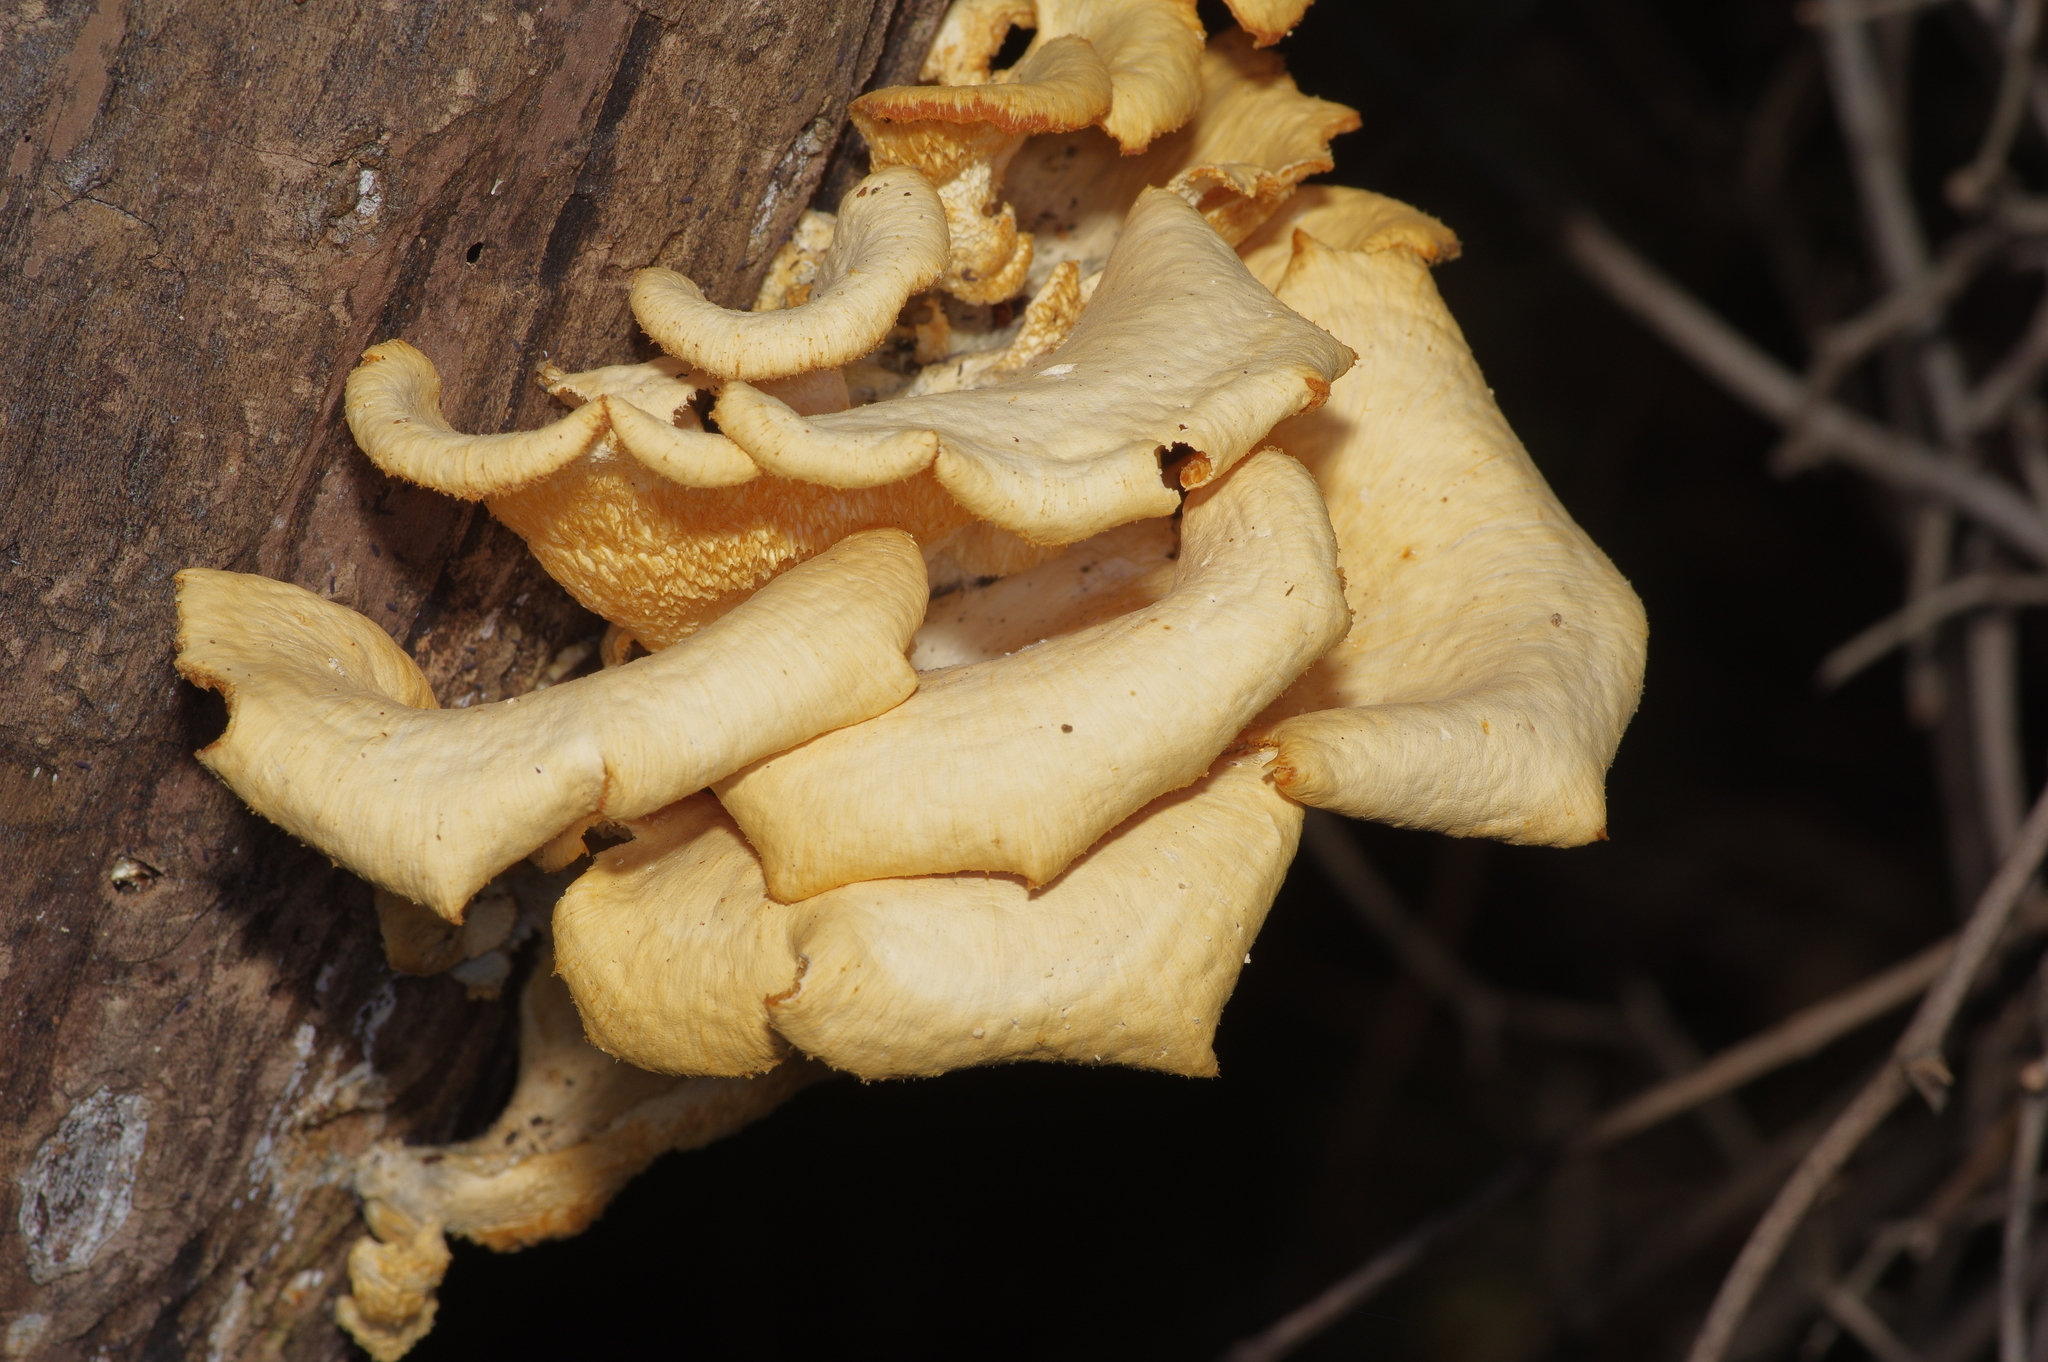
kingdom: Fungi
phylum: Basidiomycota
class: Agaricomycetes
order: Polyporales
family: Polyporaceae
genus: Favolus
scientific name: Favolus tenuiculus
